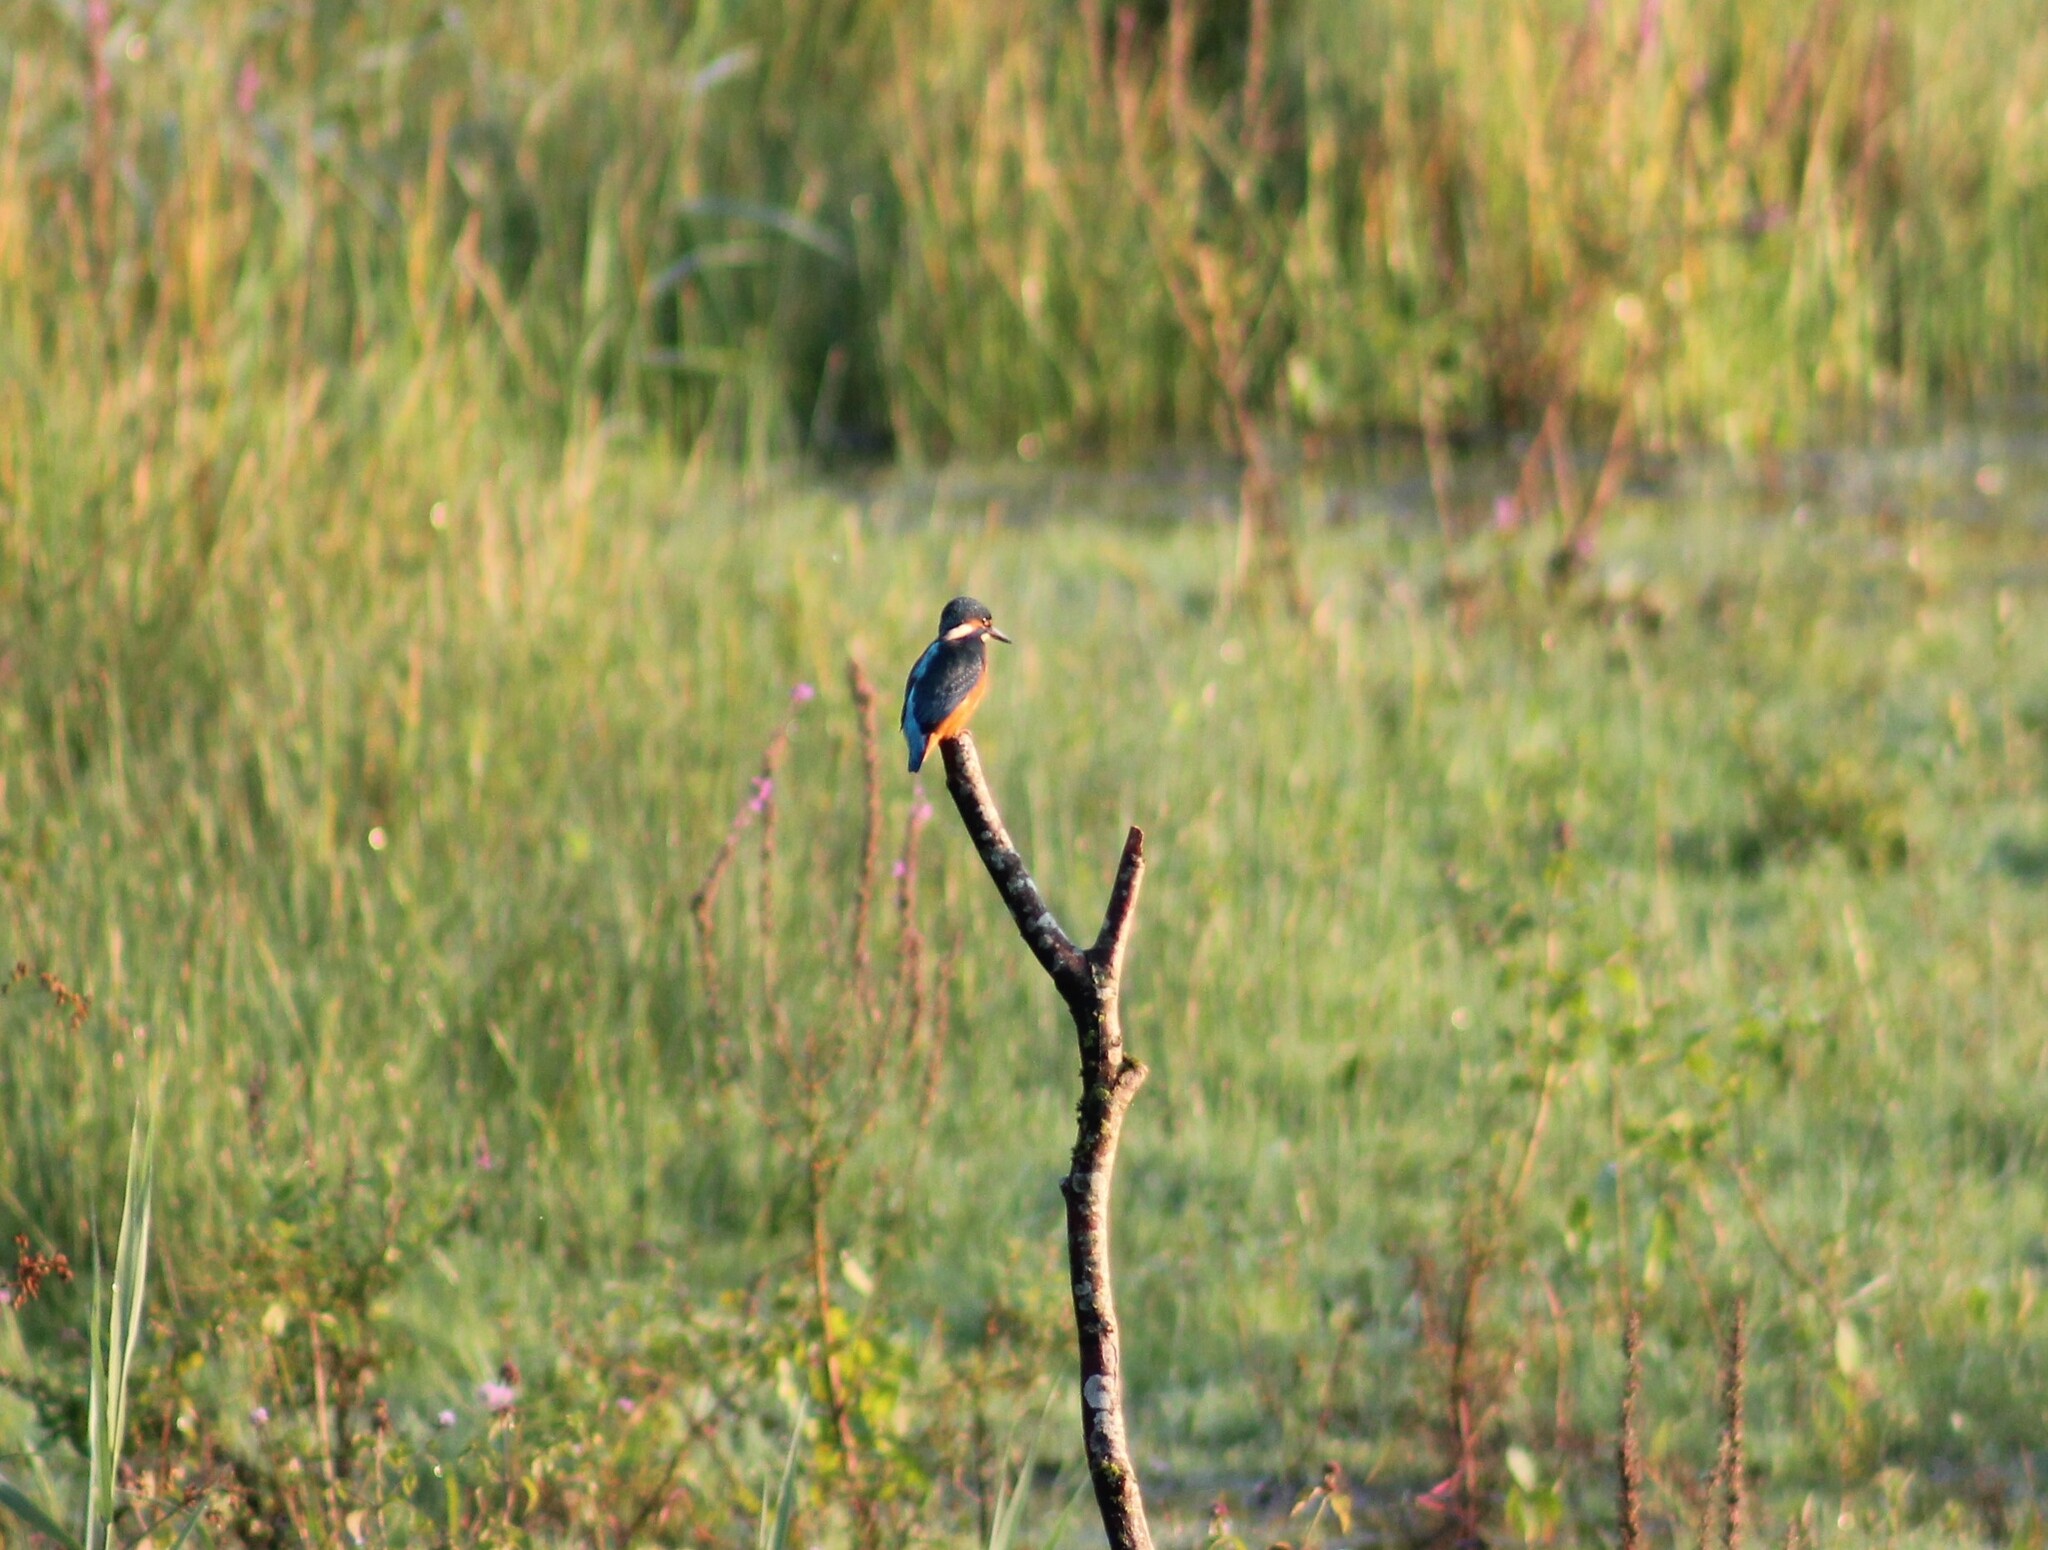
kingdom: Animalia
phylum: Chordata
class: Aves
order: Coraciiformes
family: Alcedinidae
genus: Alcedo
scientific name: Alcedo atthis
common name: Common kingfisher
